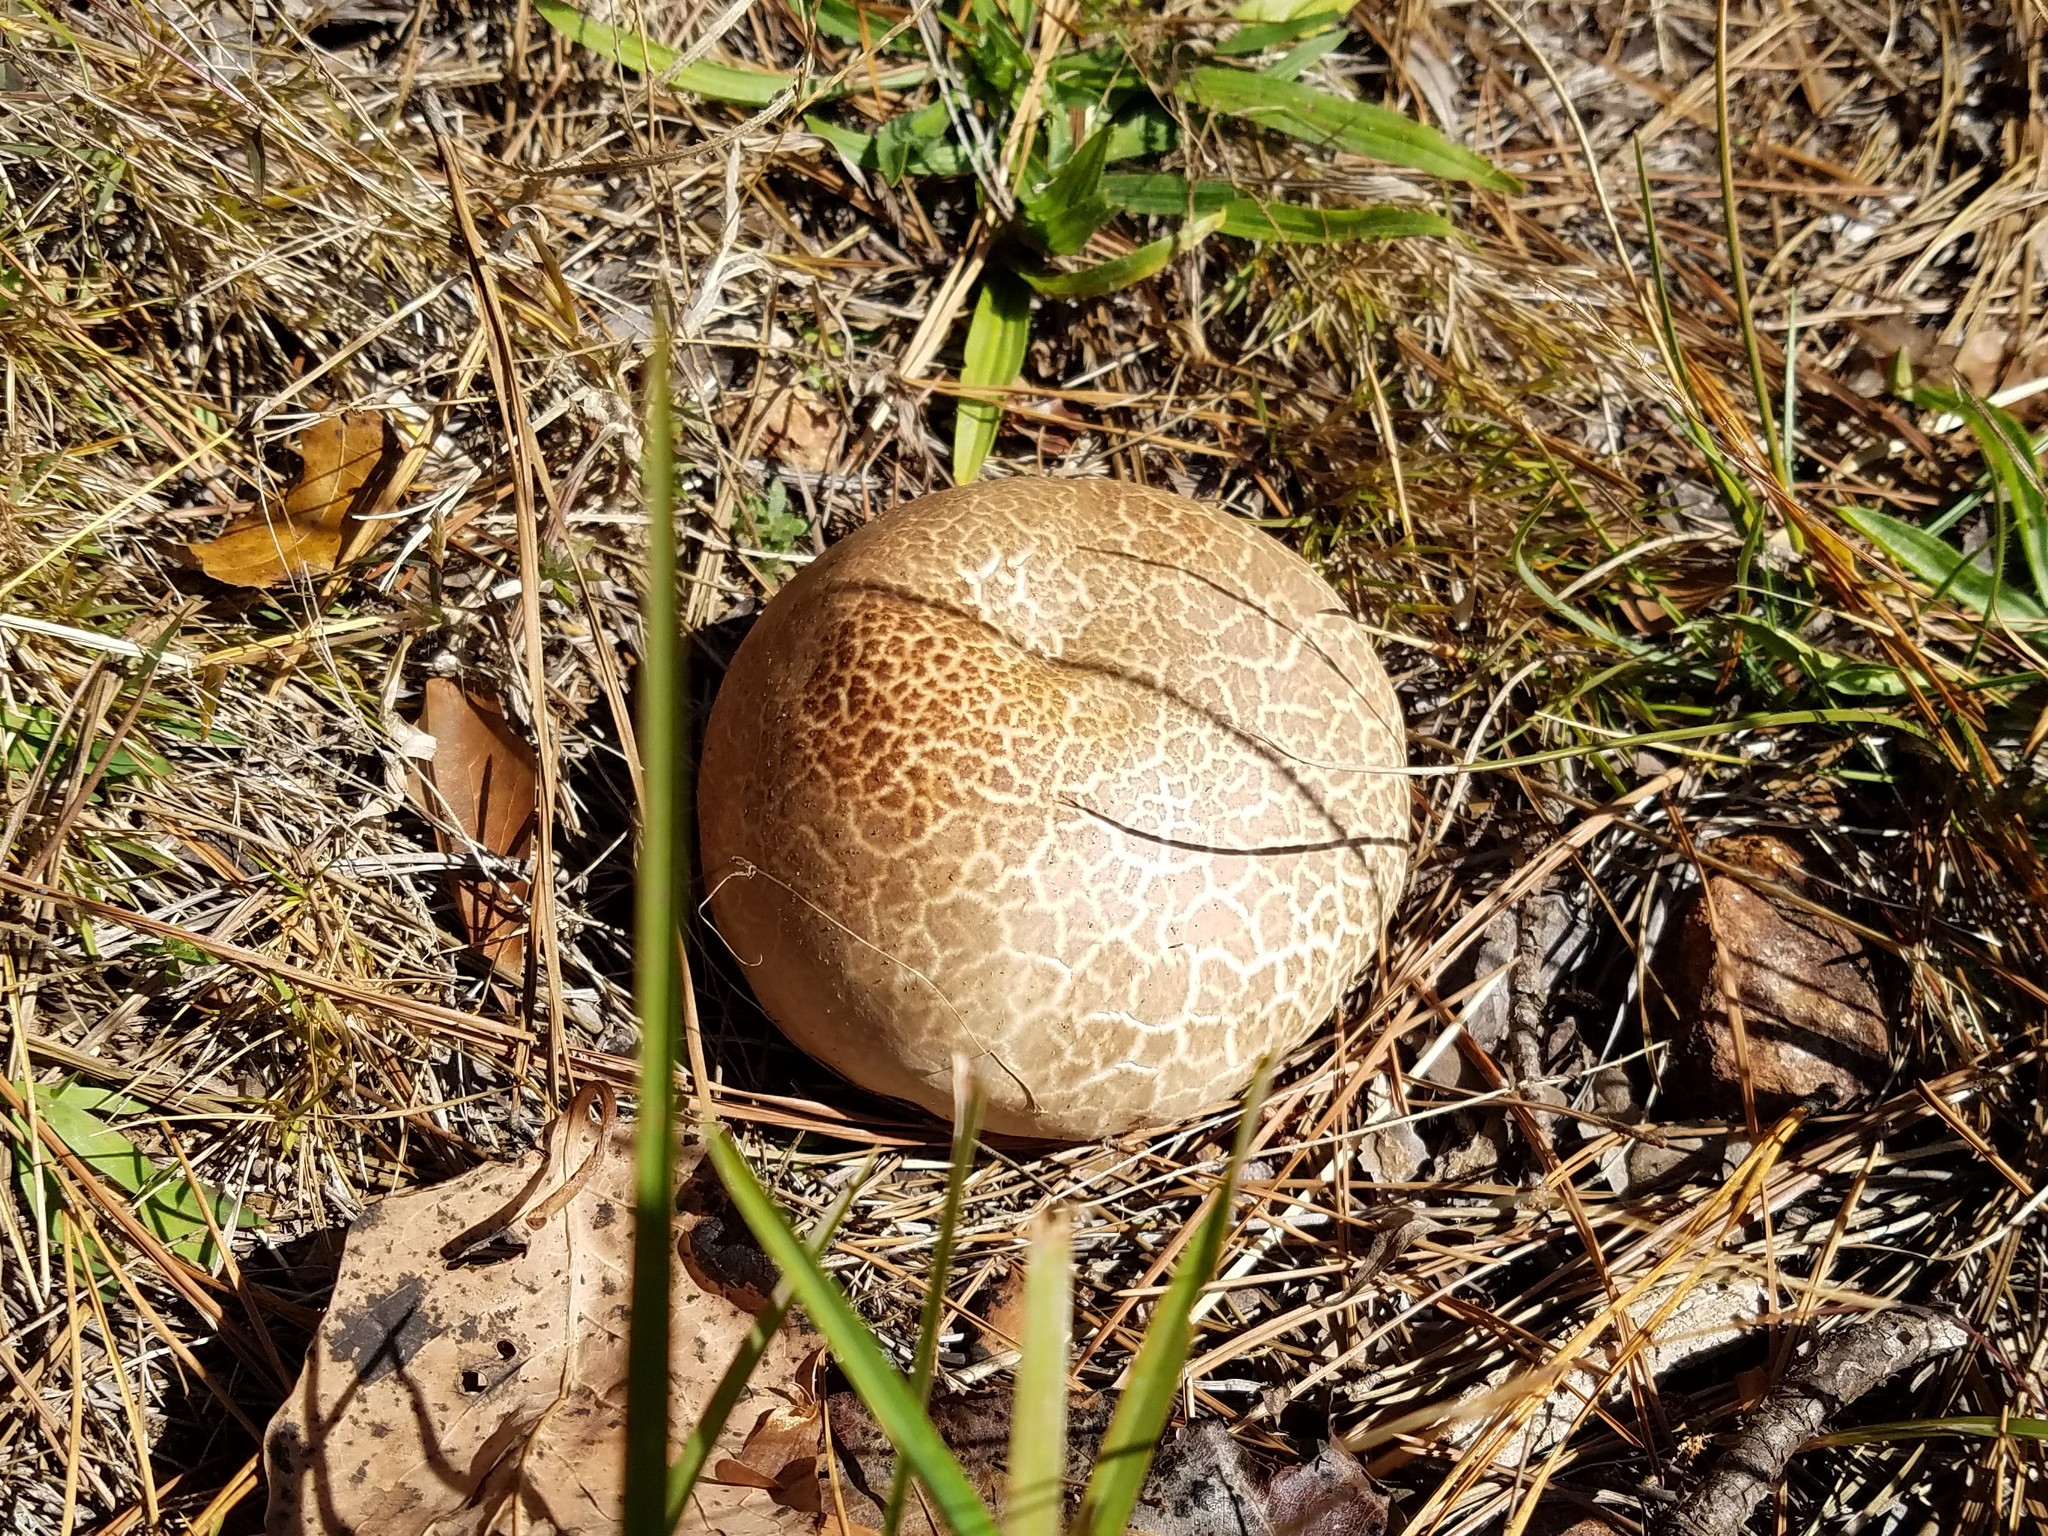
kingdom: Fungi
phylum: Basidiomycota
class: Agaricomycetes
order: Agaricales
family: Lycoperdaceae
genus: Calvatia
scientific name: Calvatia cyathiformis
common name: Purple-spored puffball
